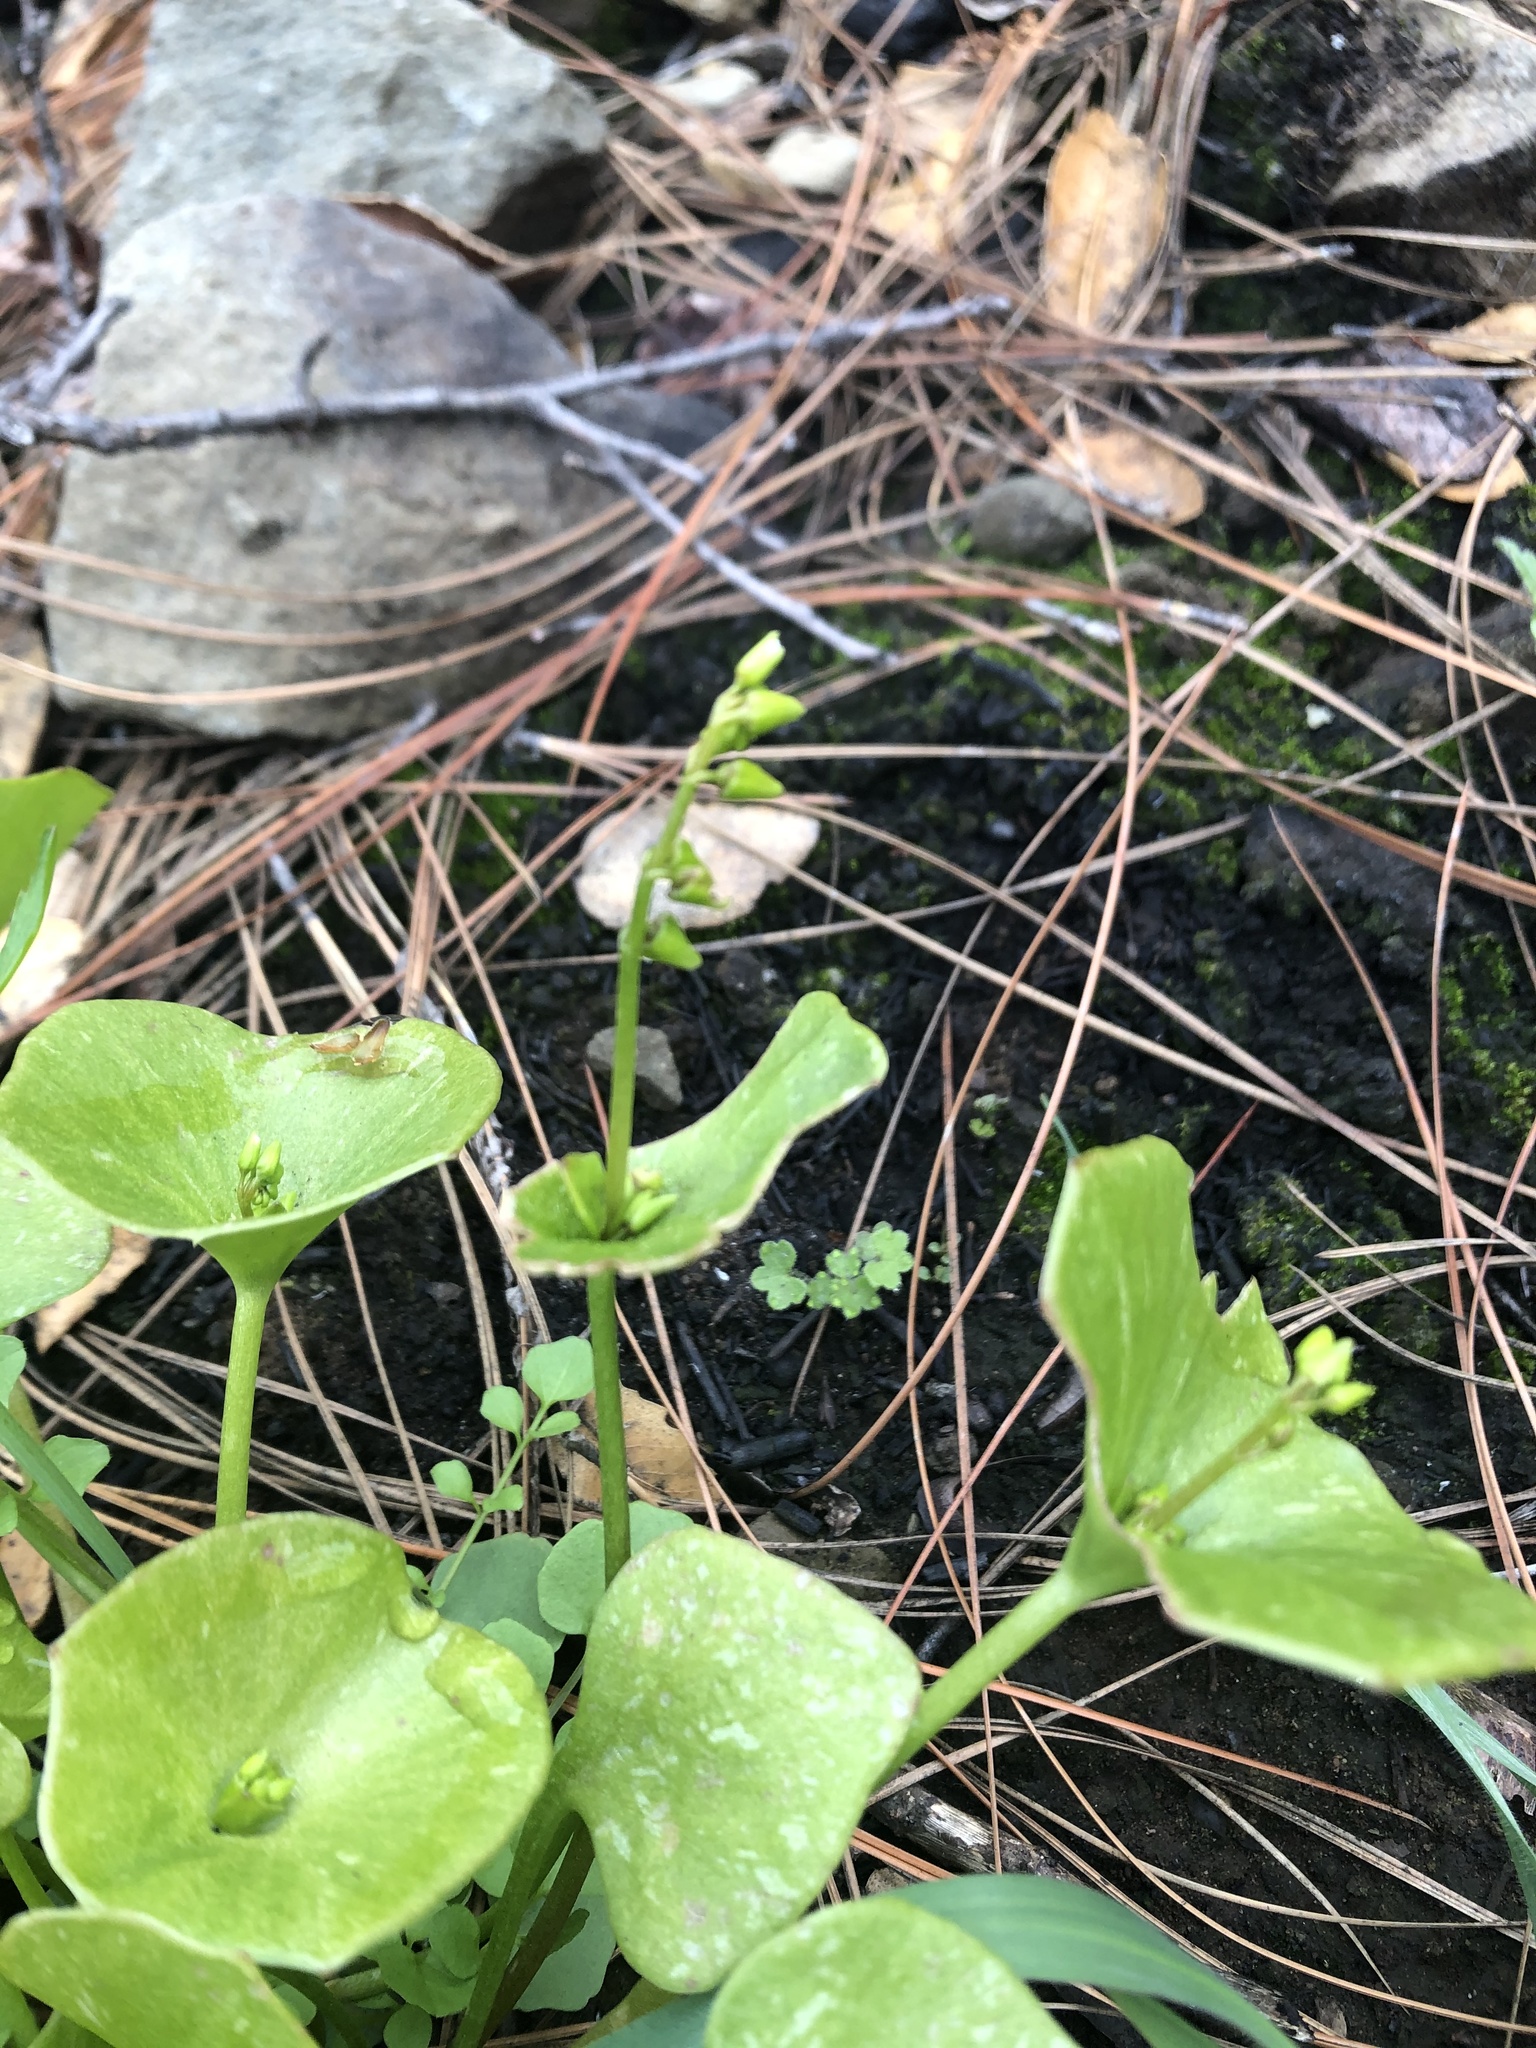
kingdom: Plantae
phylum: Tracheophyta
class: Magnoliopsida
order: Caryophyllales
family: Montiaceae
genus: Claytonia
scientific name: Claytonia perfoliata
